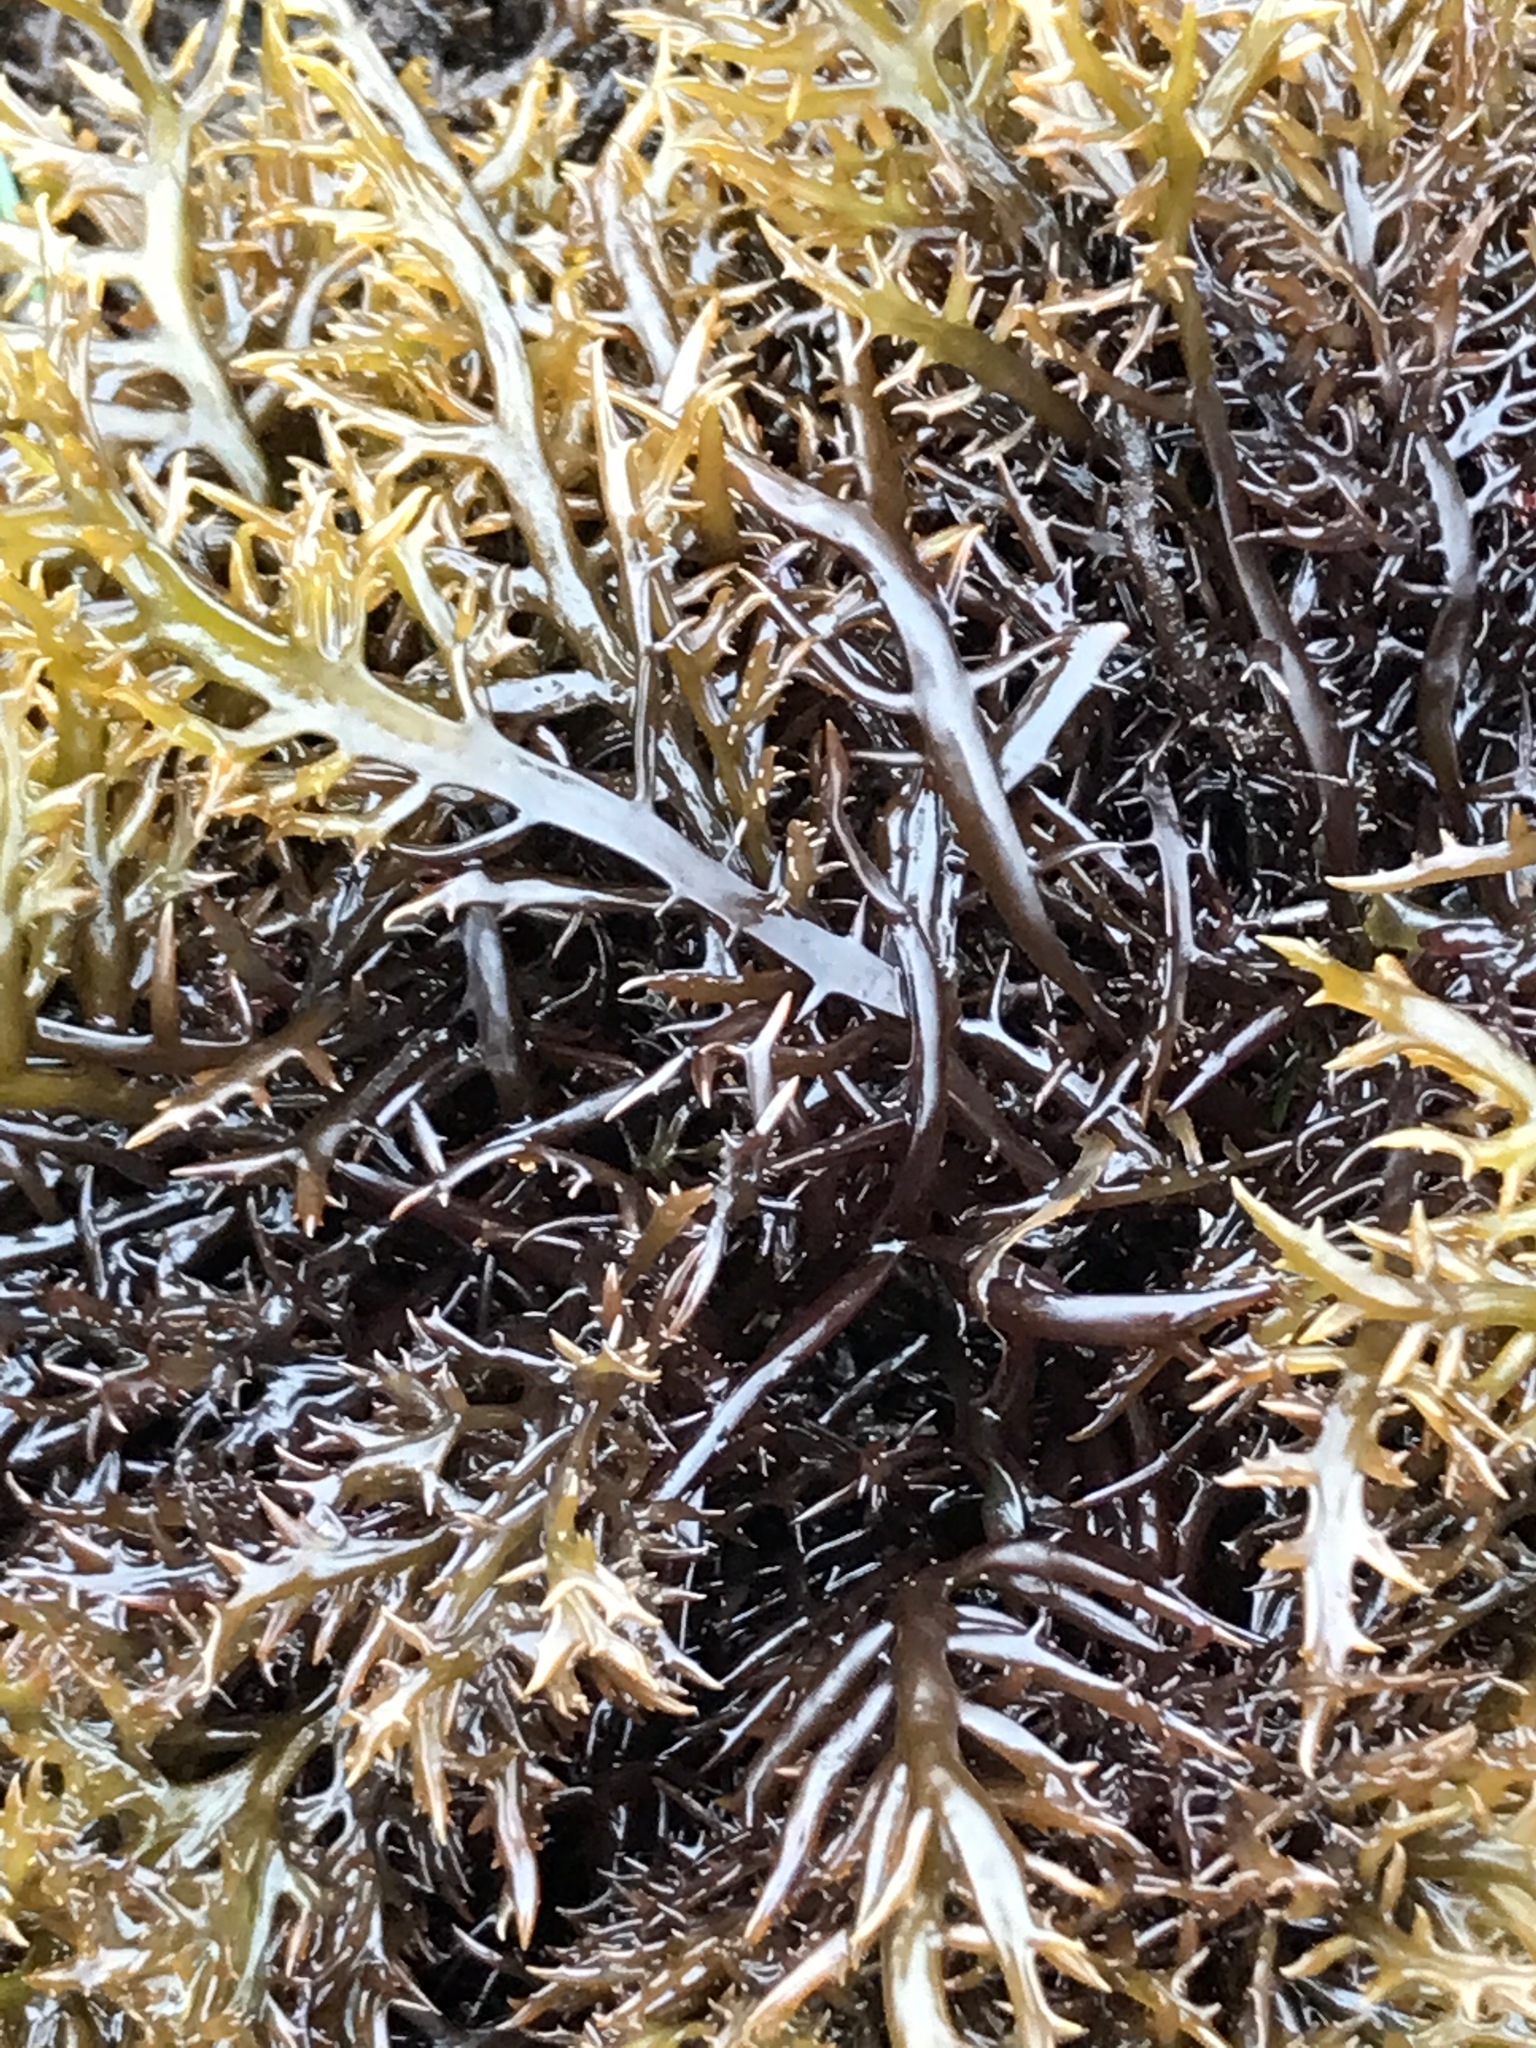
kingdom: Plantae
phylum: Rhodophyta
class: Florideophyceae
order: Gigartinales
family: Gigartinaceae
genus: Chondracanthus
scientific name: Chondracanthus canaliculatus
